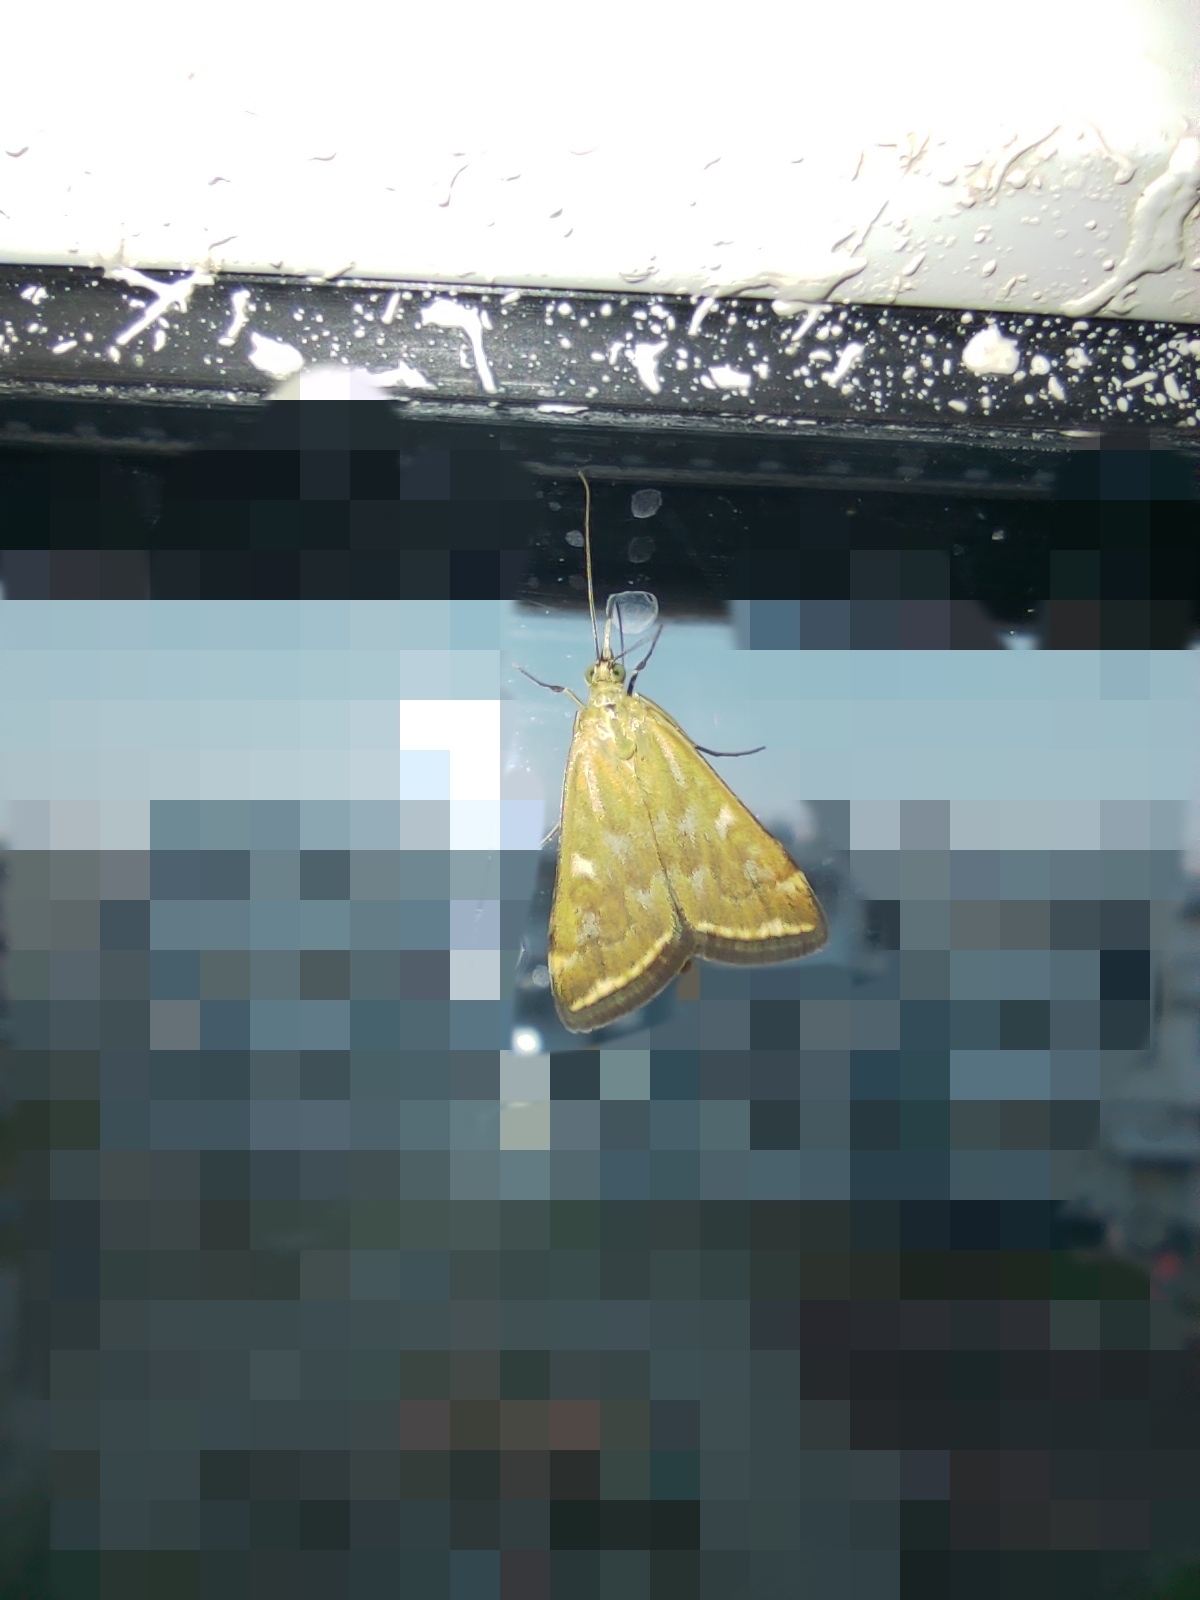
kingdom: Animalia
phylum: Arthropoda
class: Insecta
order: Lepidoptera
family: Crambidae
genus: Loxostege
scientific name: Loxostege sticticalis
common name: Crambid moth
